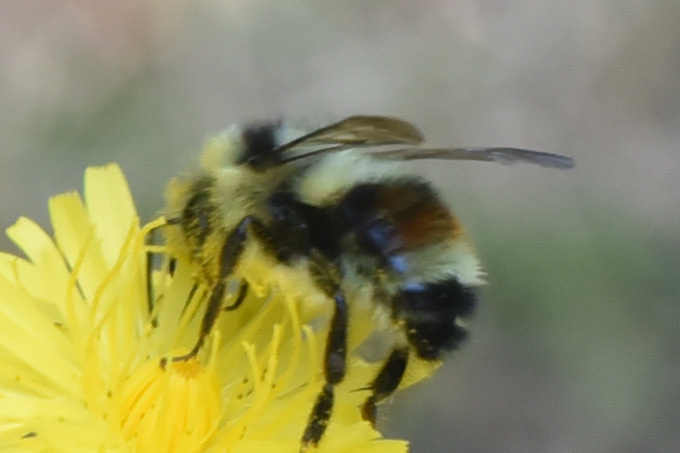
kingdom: Animalia
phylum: Arthropoda
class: Insecta
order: Hymenoptera
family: Apidae
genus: Bombus
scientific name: Bombus vancouverensis
